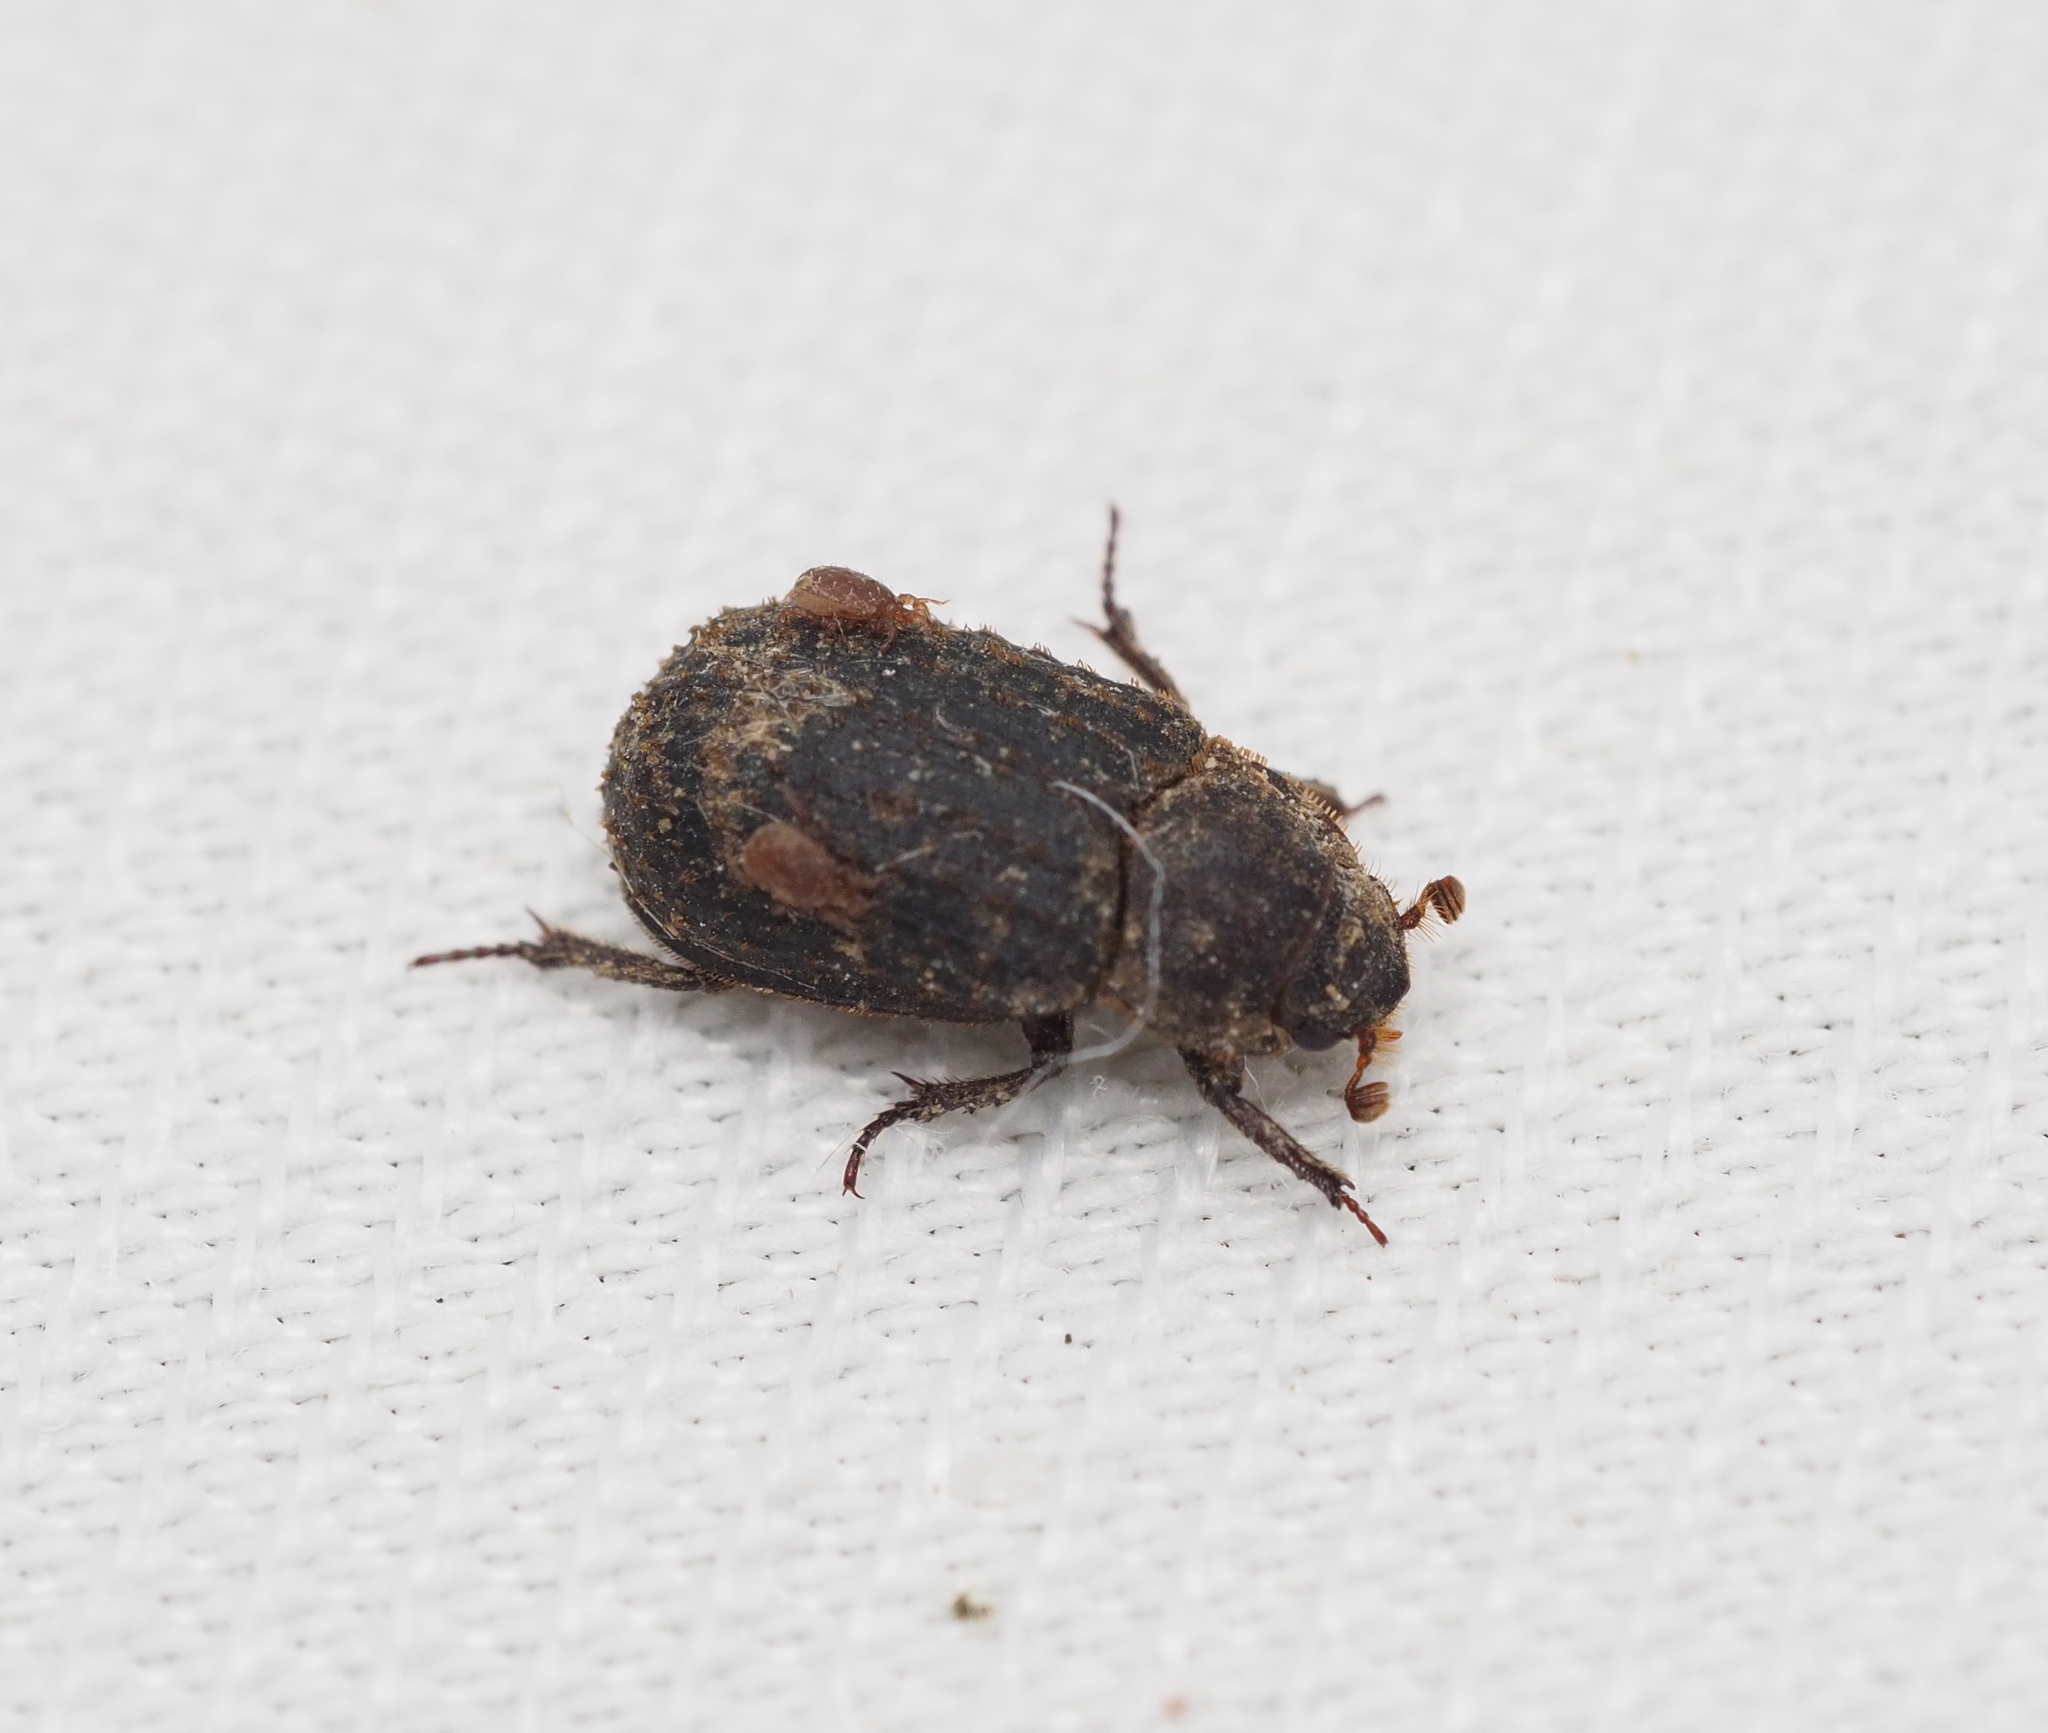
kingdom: Animalia
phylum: Arthropoda
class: Insecta
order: Coleoptera
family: Trogidae
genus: Trox
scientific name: Trox scaber
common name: Hide beetle
